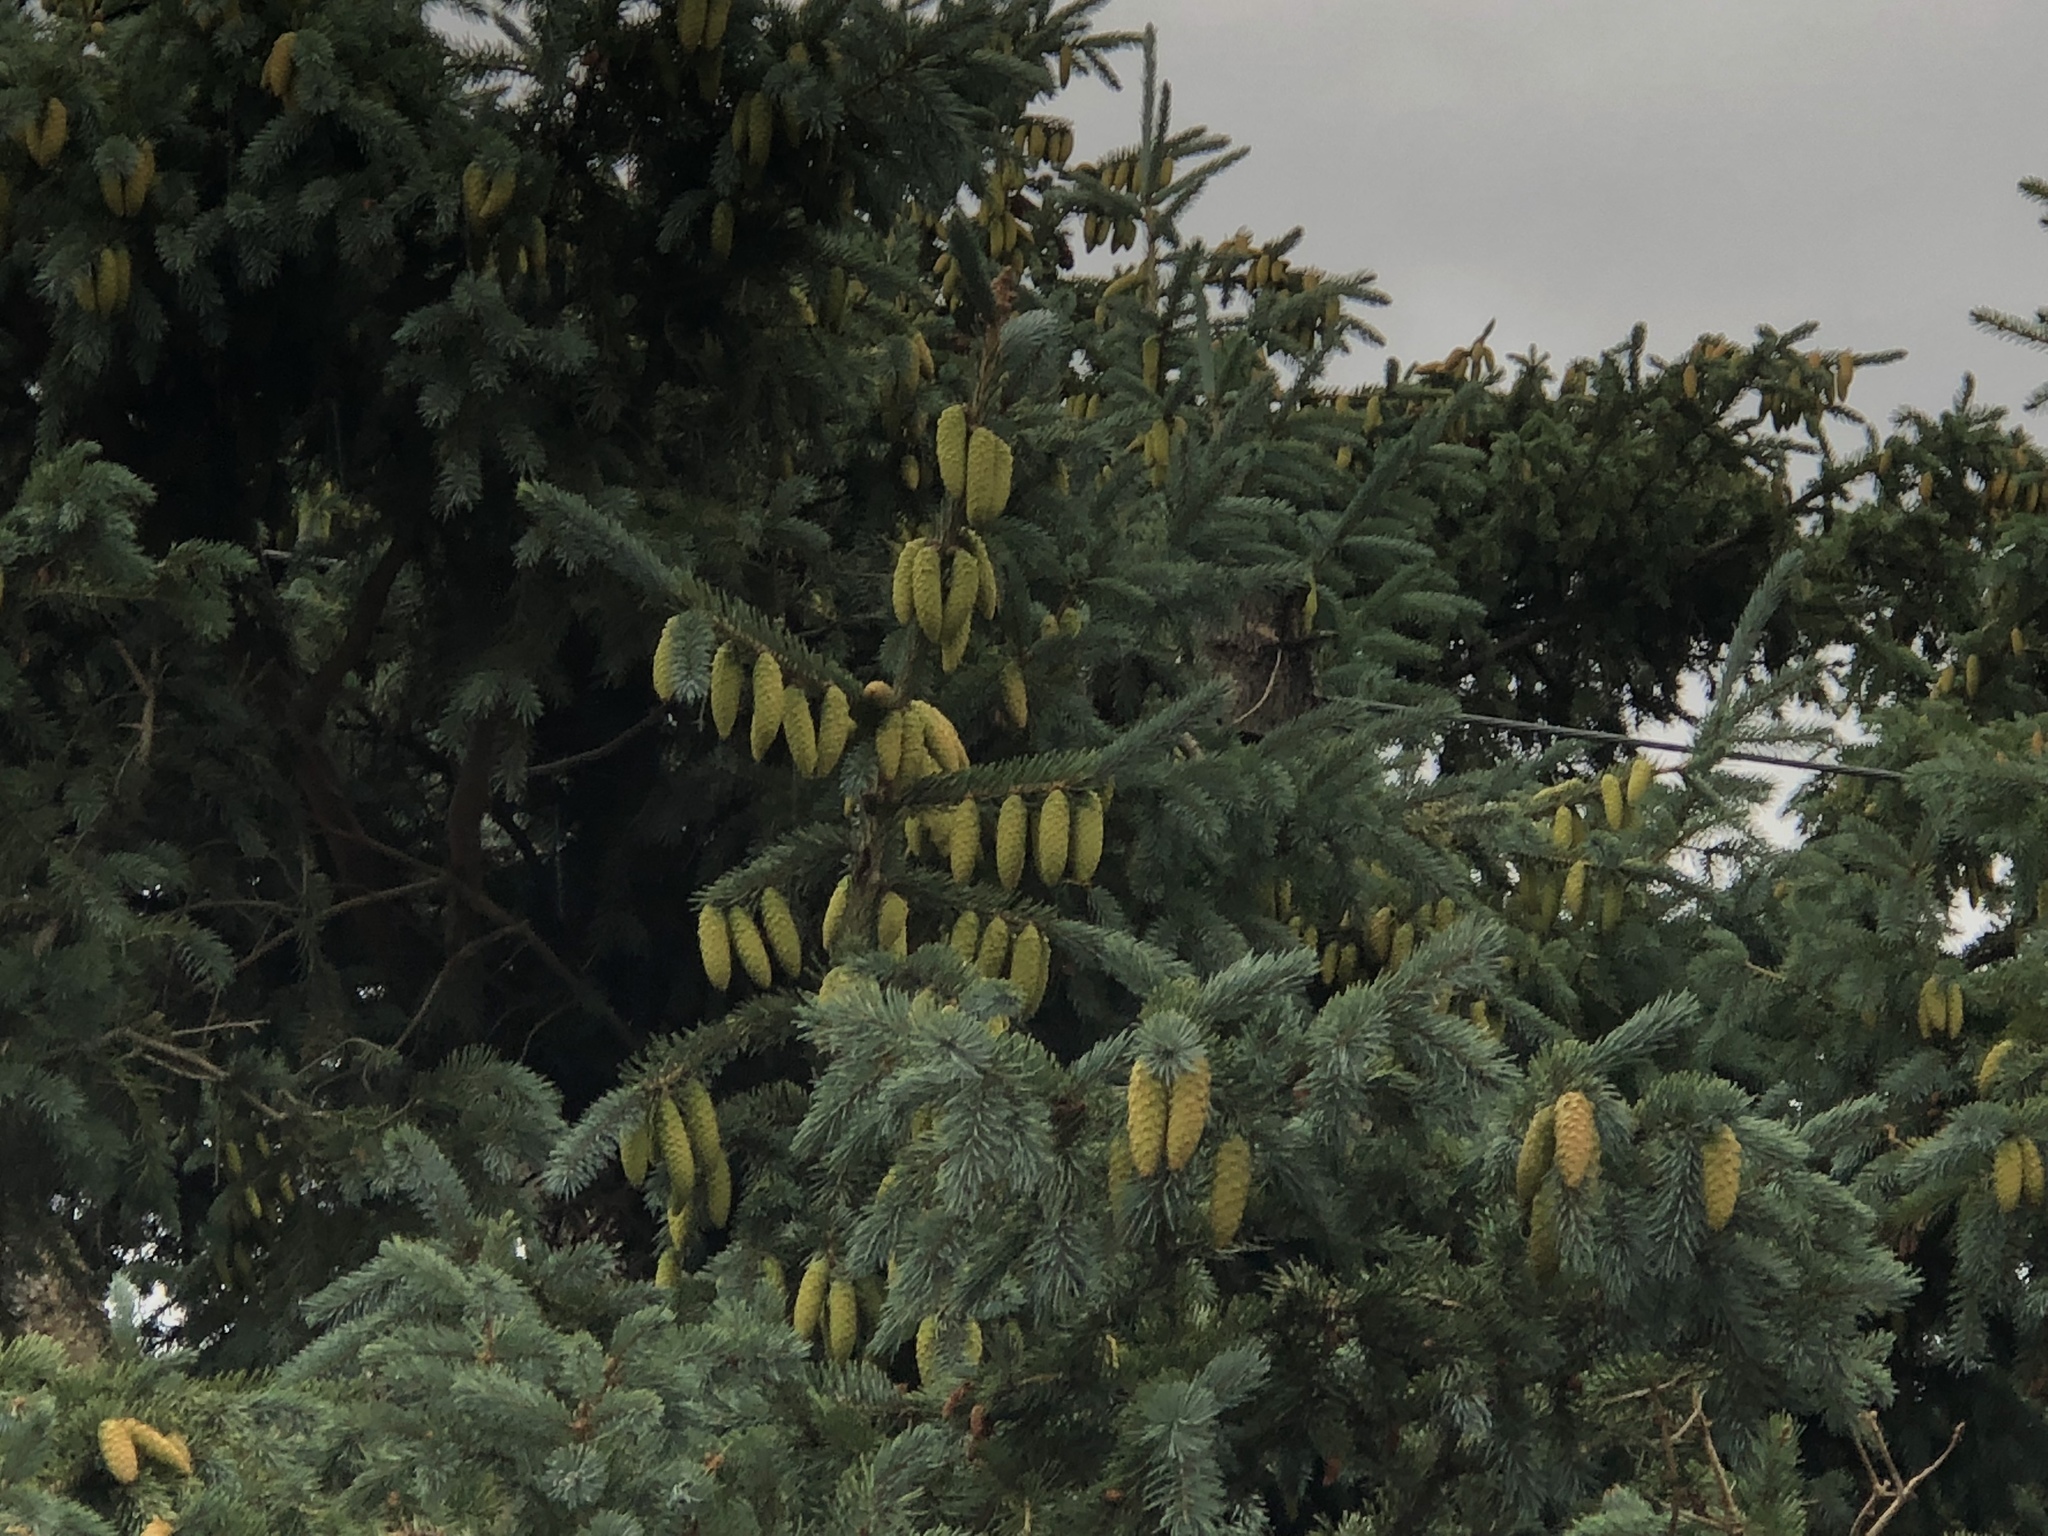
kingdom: Plantae
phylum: Tracheophyta
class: Pinopsida
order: Pinales
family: Pinaceae
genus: Picea
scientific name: Picea pungens
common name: Colorado spruce
